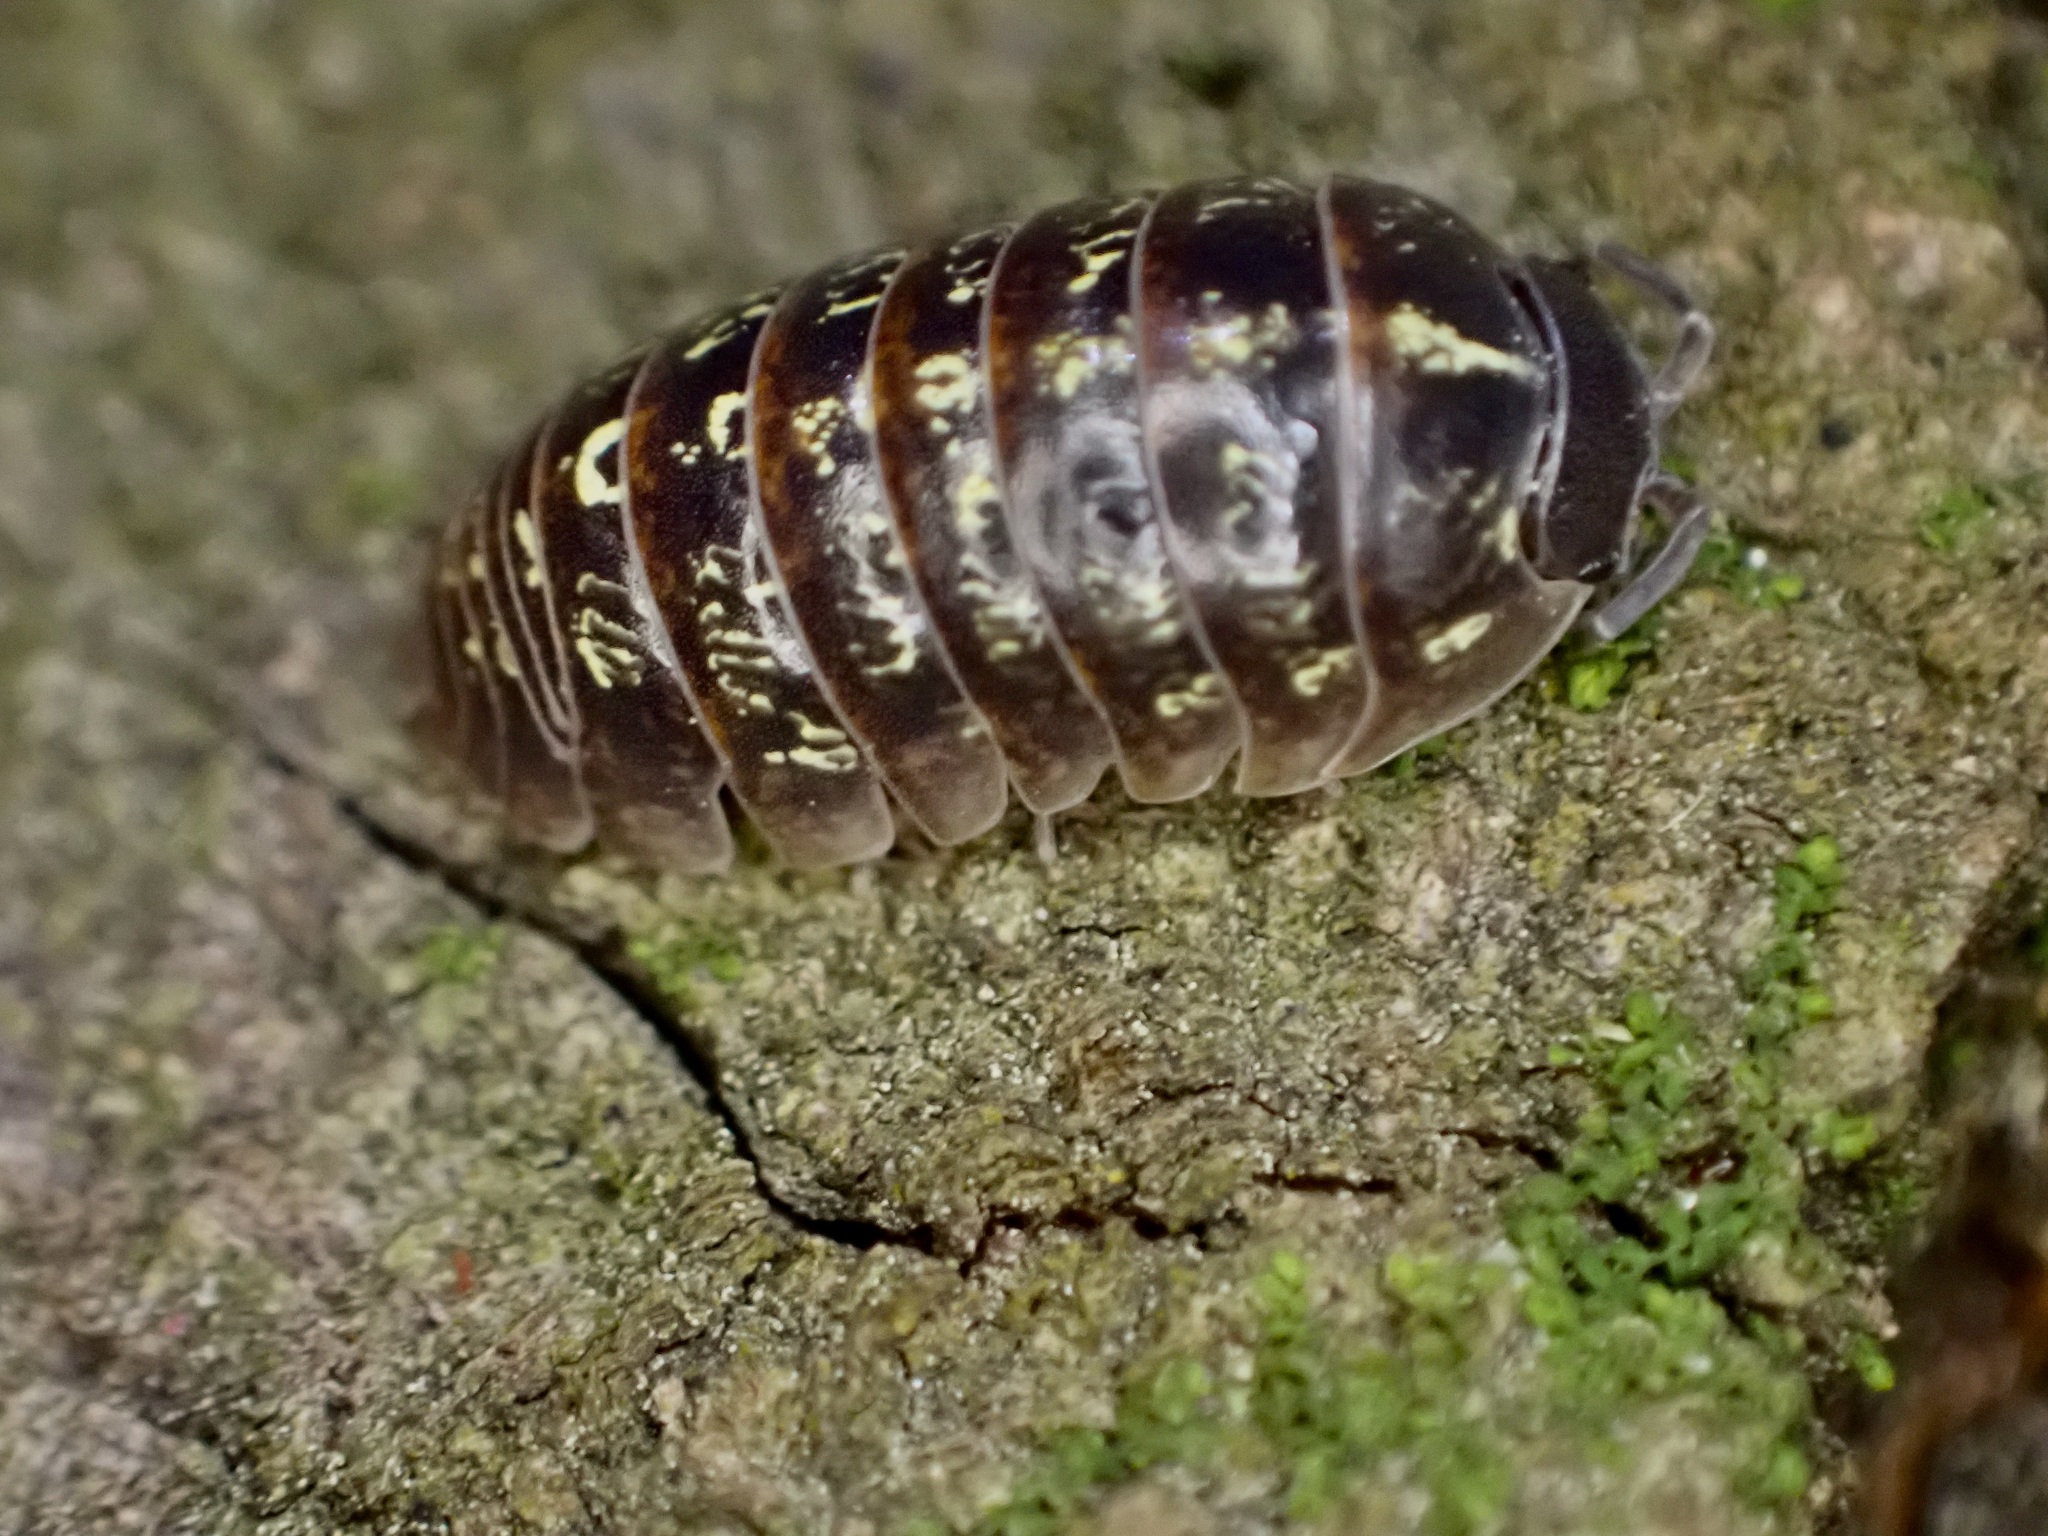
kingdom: Animalia
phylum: Arthropoda
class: Malacostraca
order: Isopoda
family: Armadillidiidae
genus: Armadillidium
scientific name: Armadillidium vulgare
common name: Common pill woodlouse
